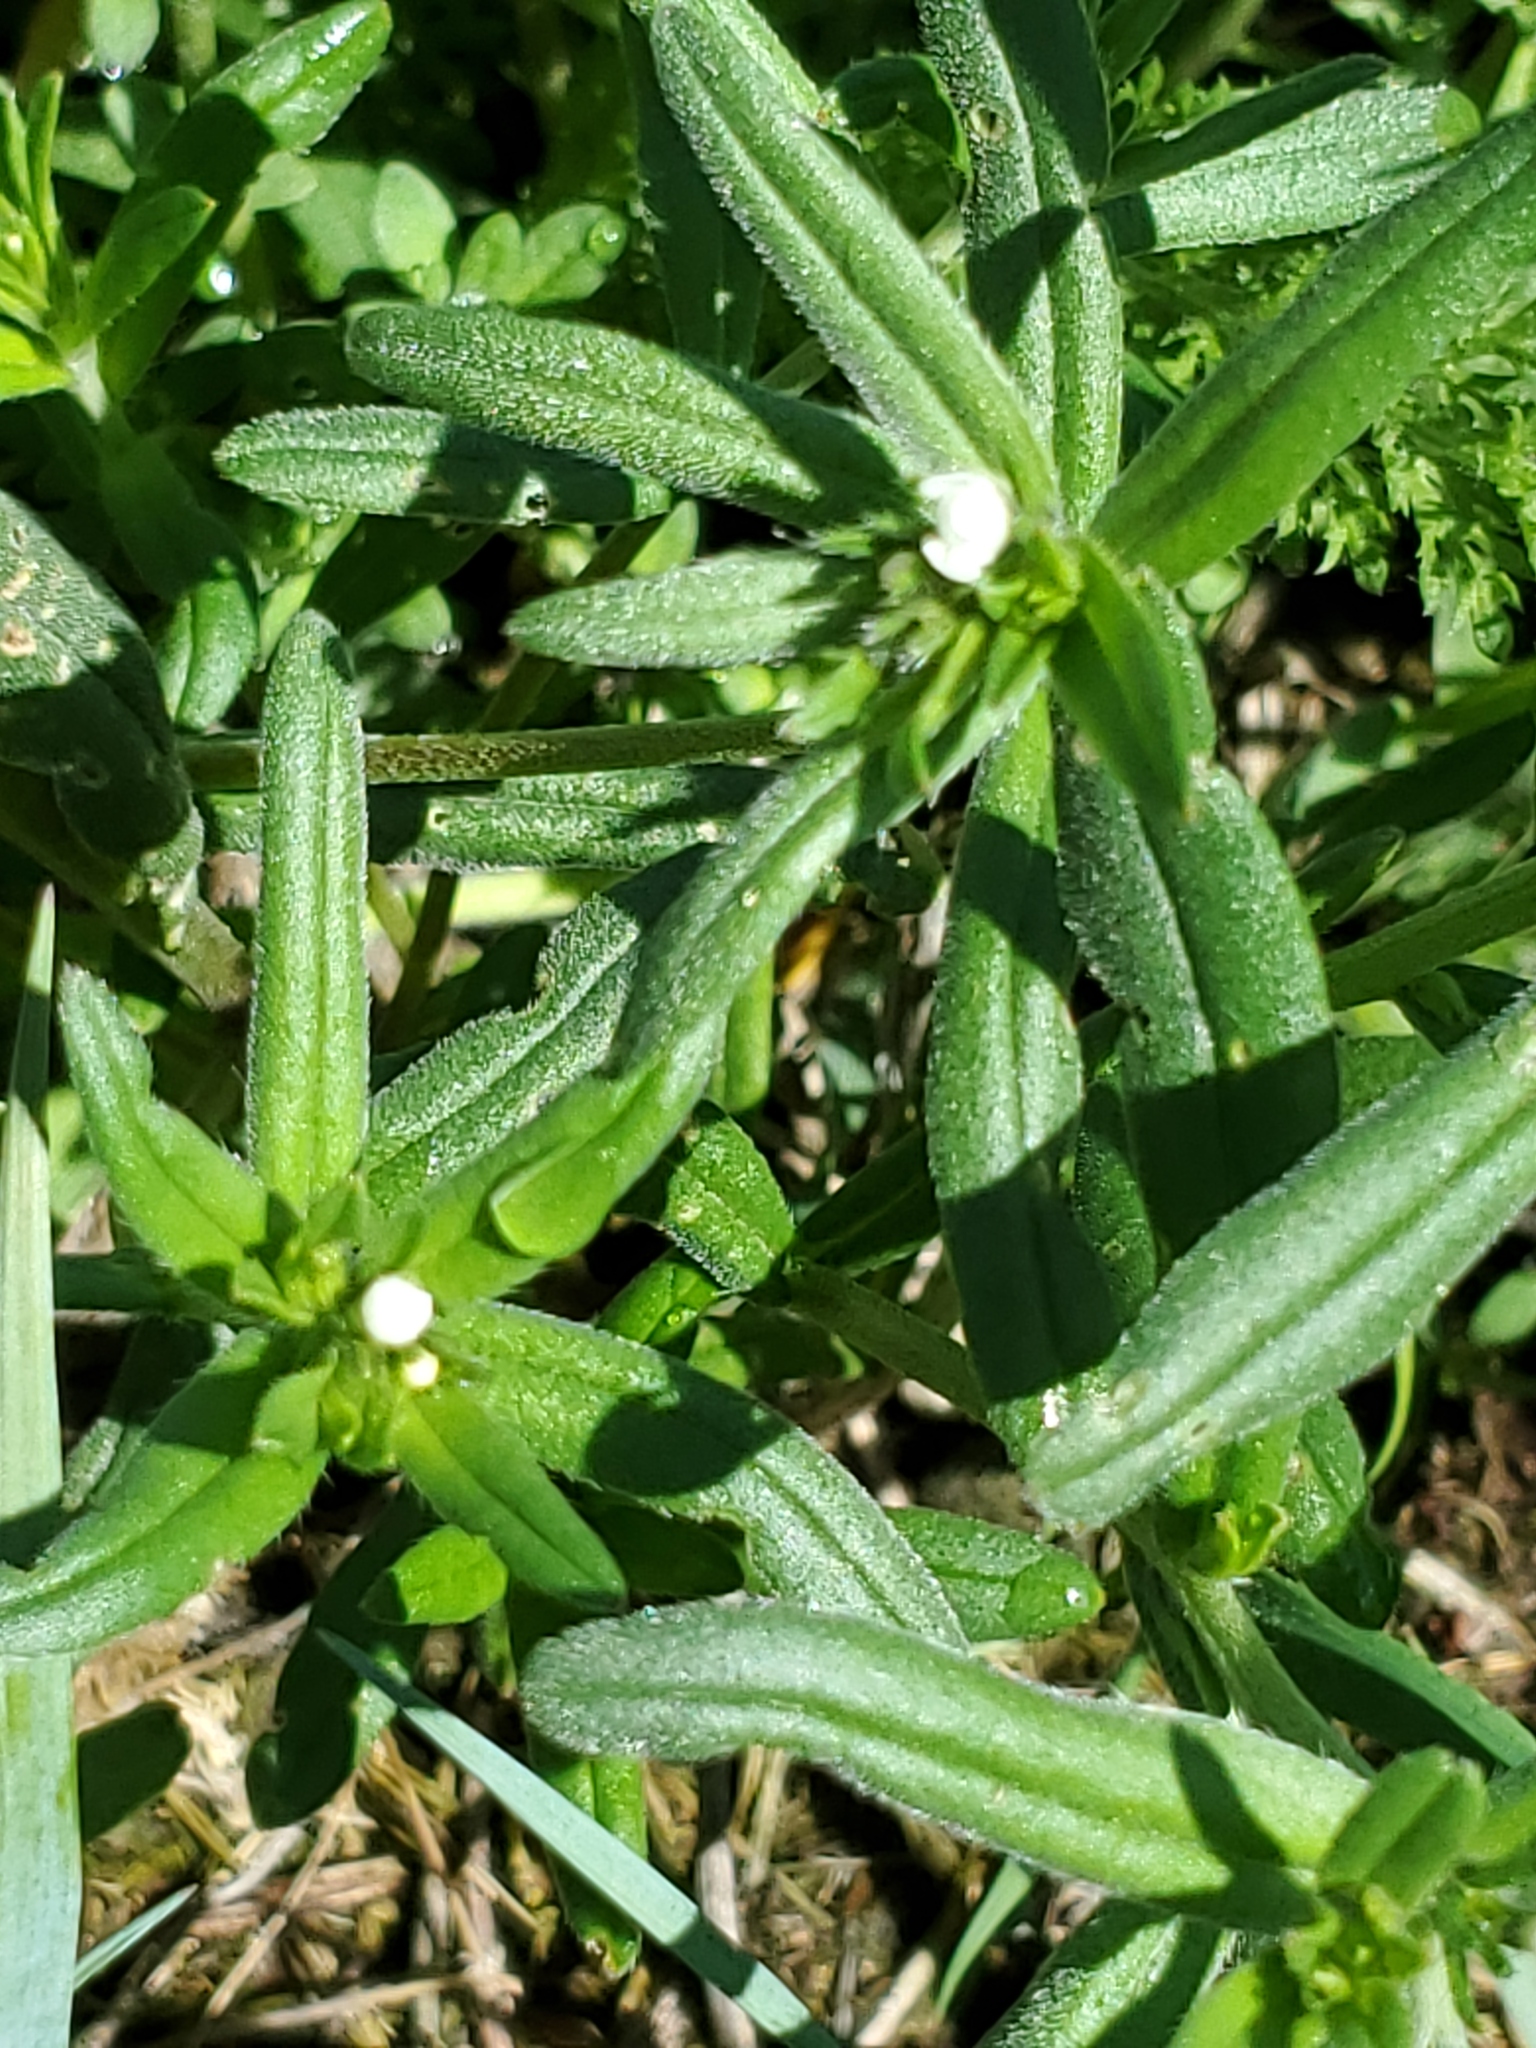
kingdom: Plantae
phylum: Tracheophyta
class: Magnoliopsida
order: Boraginales
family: Boraginaceae
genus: Buglossoides
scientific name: Buglossoides arvensis
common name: Corn gromwell
